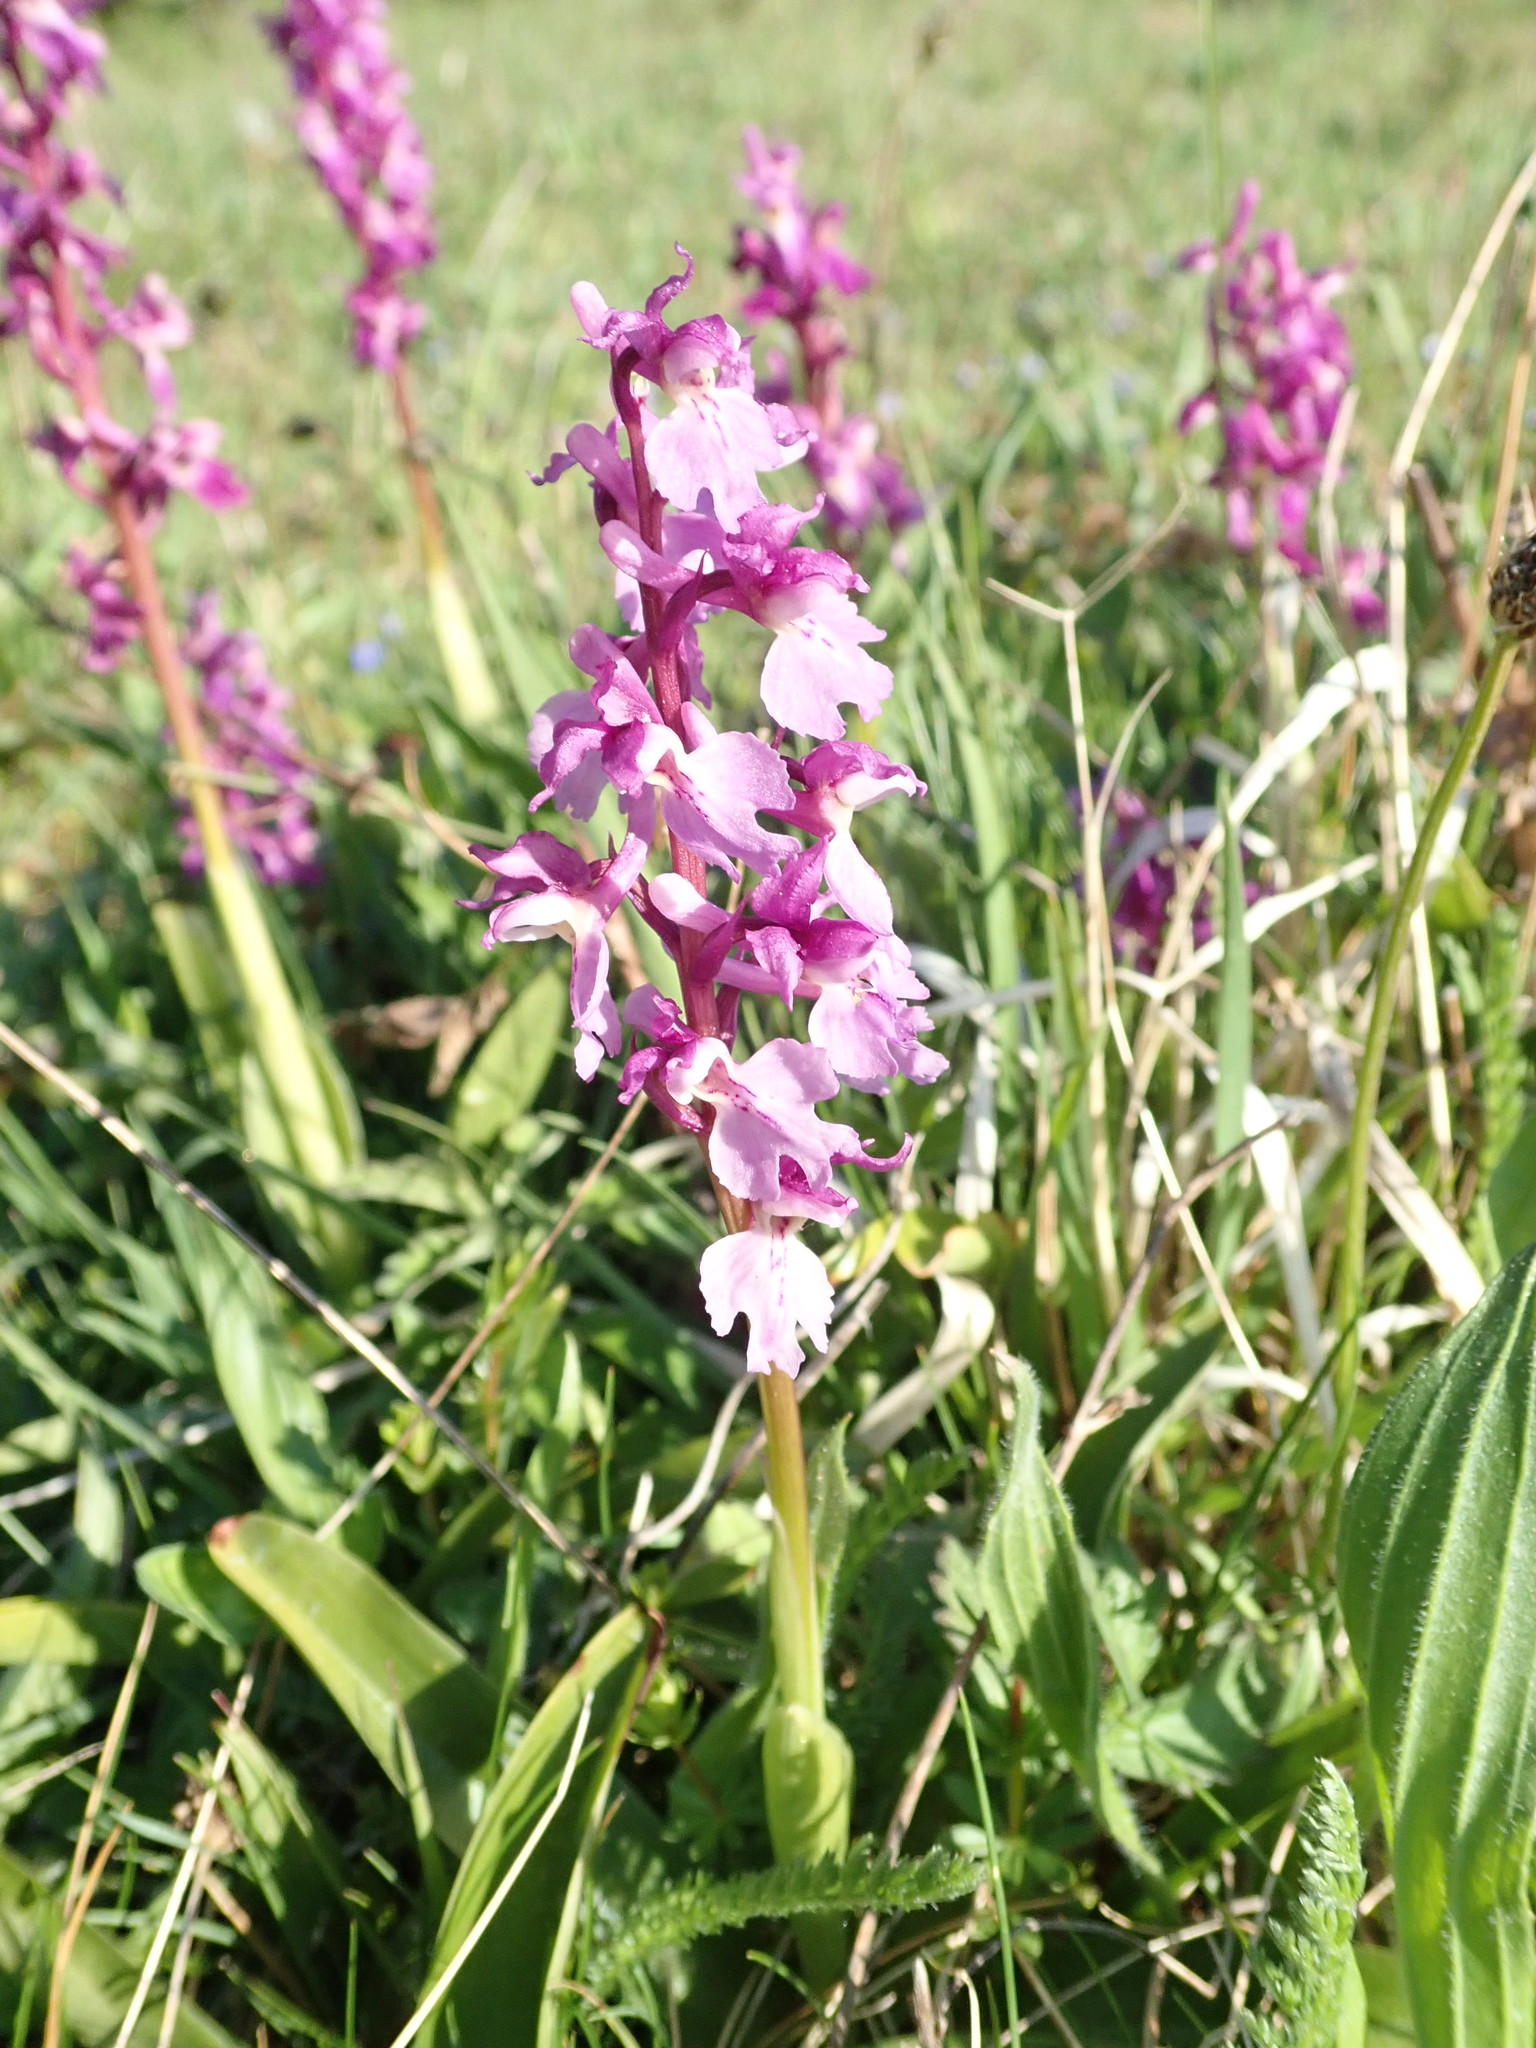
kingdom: Plantae
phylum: Tracheophyta
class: Liliopsida
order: Asparagales
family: Orchidaceae
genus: Orchis
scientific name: Orchis mascula
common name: Early-purple orchid
